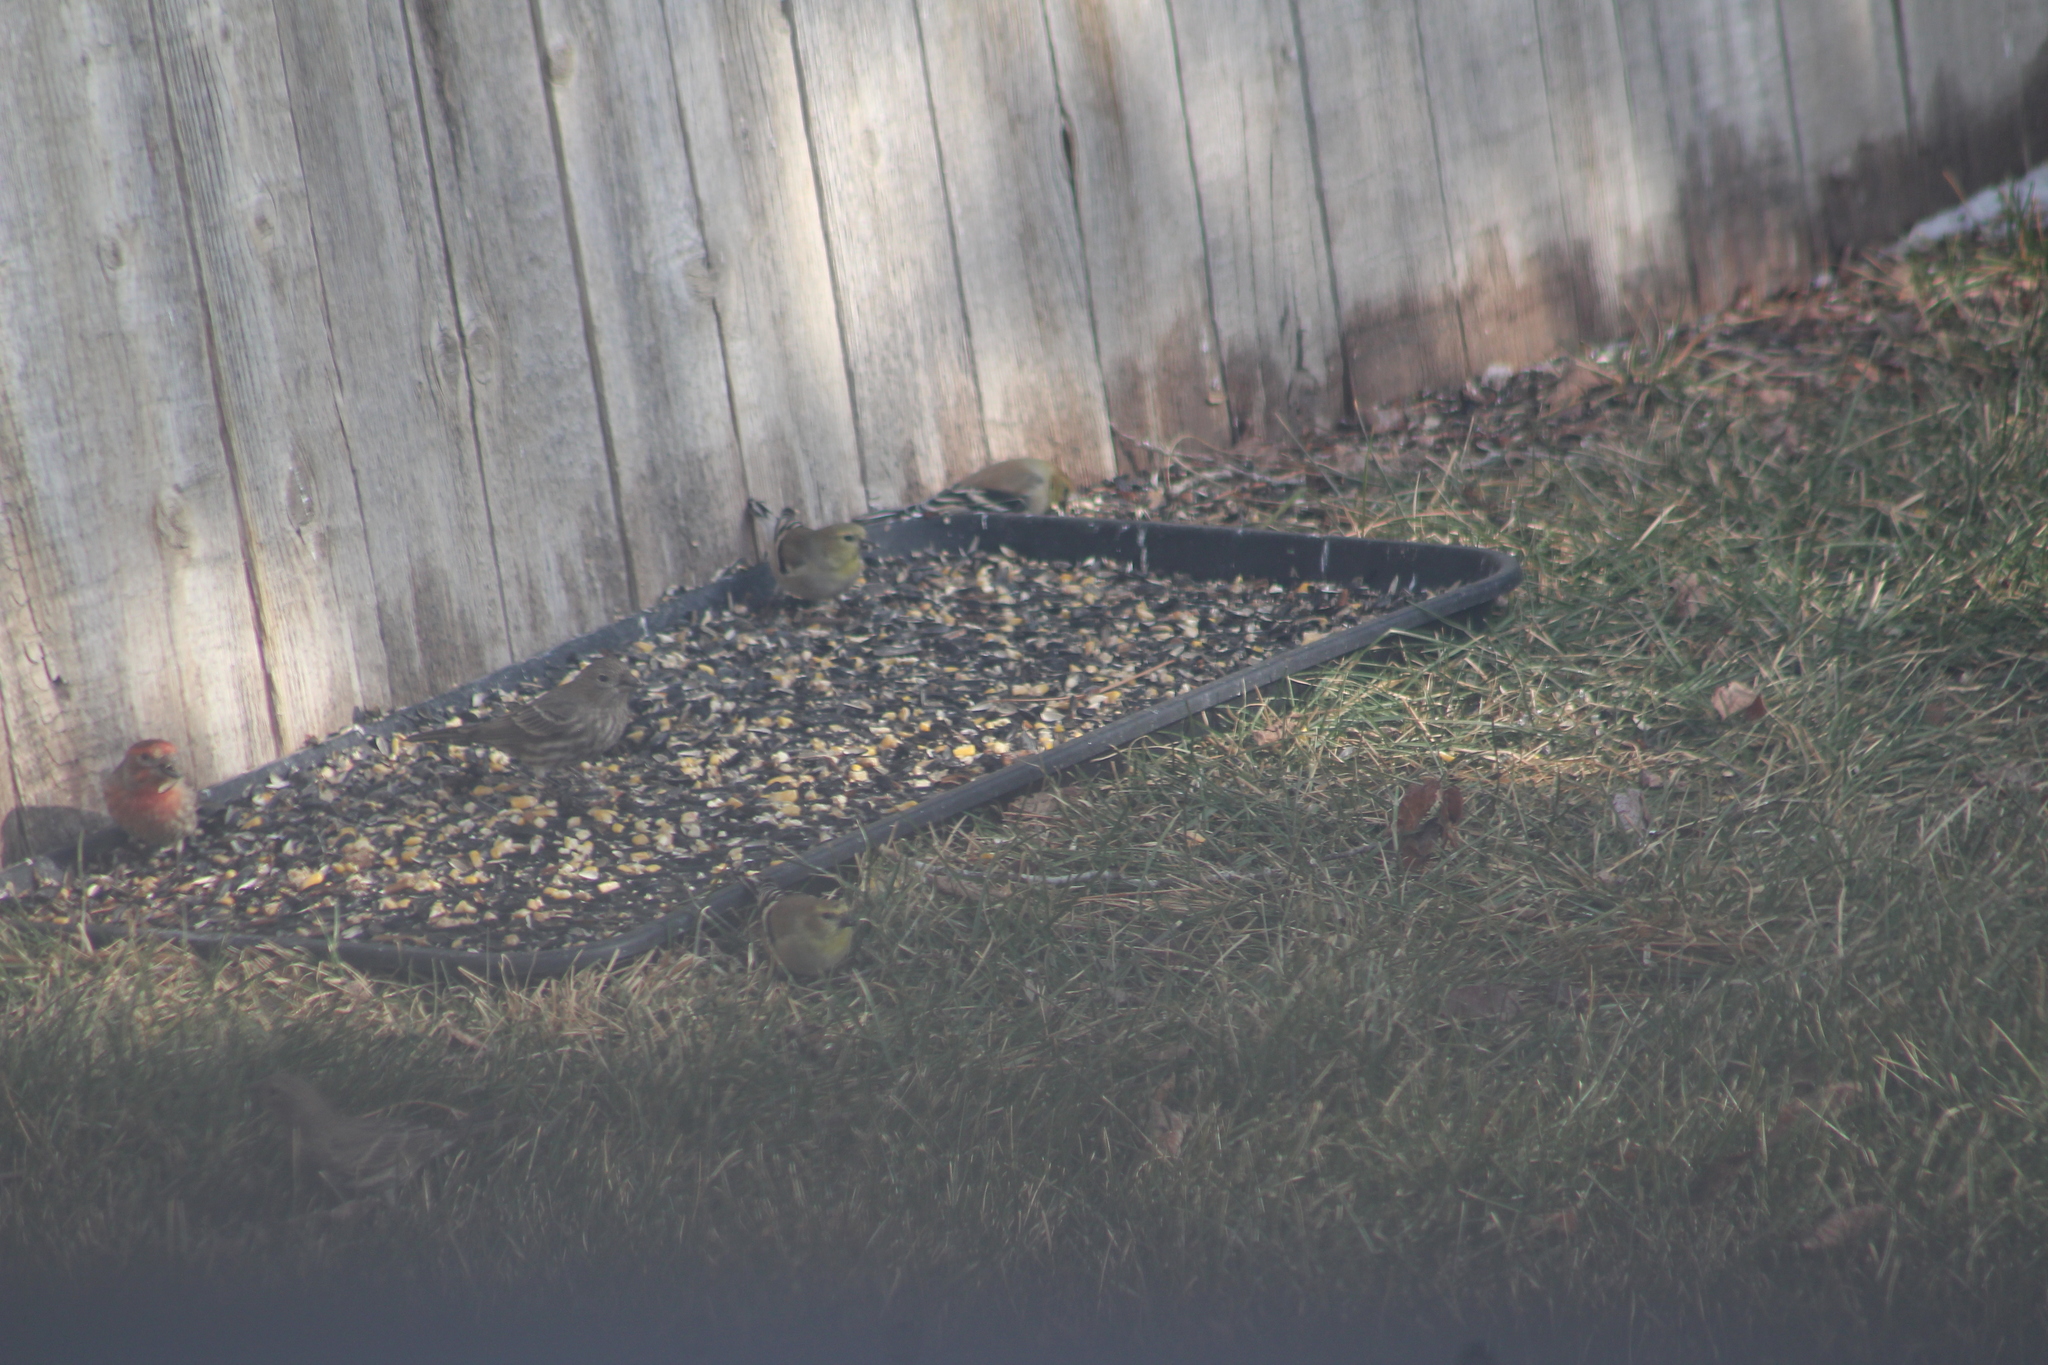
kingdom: Animalia
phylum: Chordata
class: Aves
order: Passeriformes
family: Fringillidae
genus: Spinus
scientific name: Spinus tristis
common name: American goldfinch
